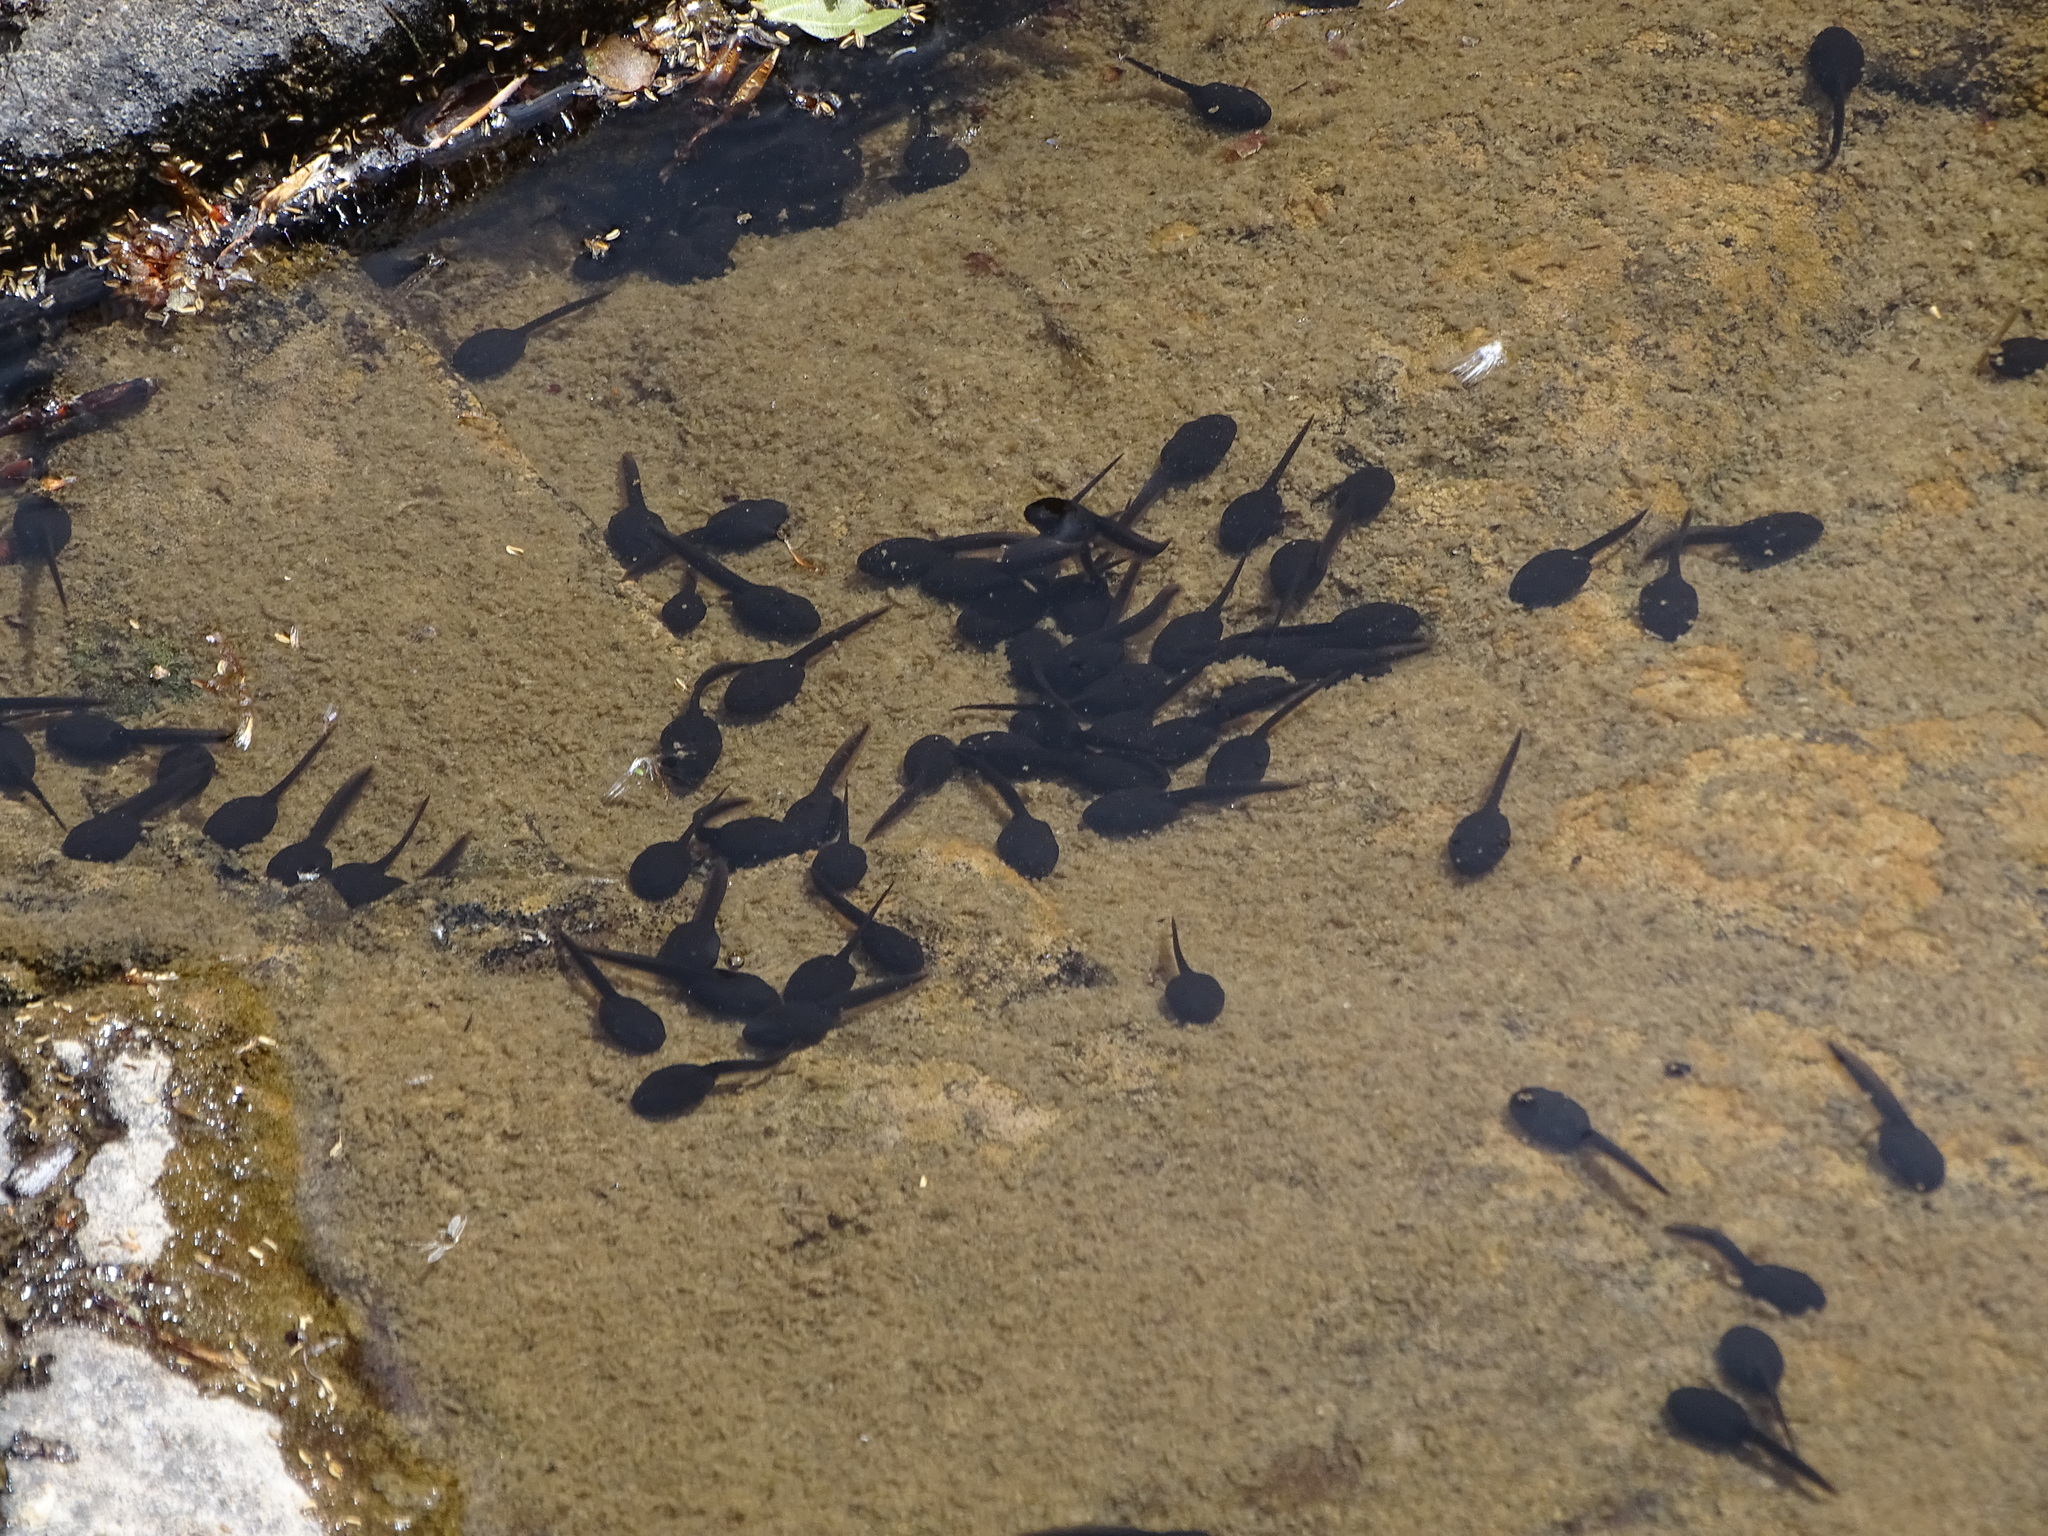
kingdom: Animalia
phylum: Chordata
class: Amphibia
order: Anura
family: Bufonidae
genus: Bufo
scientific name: Bufo bufo
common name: Common toad
